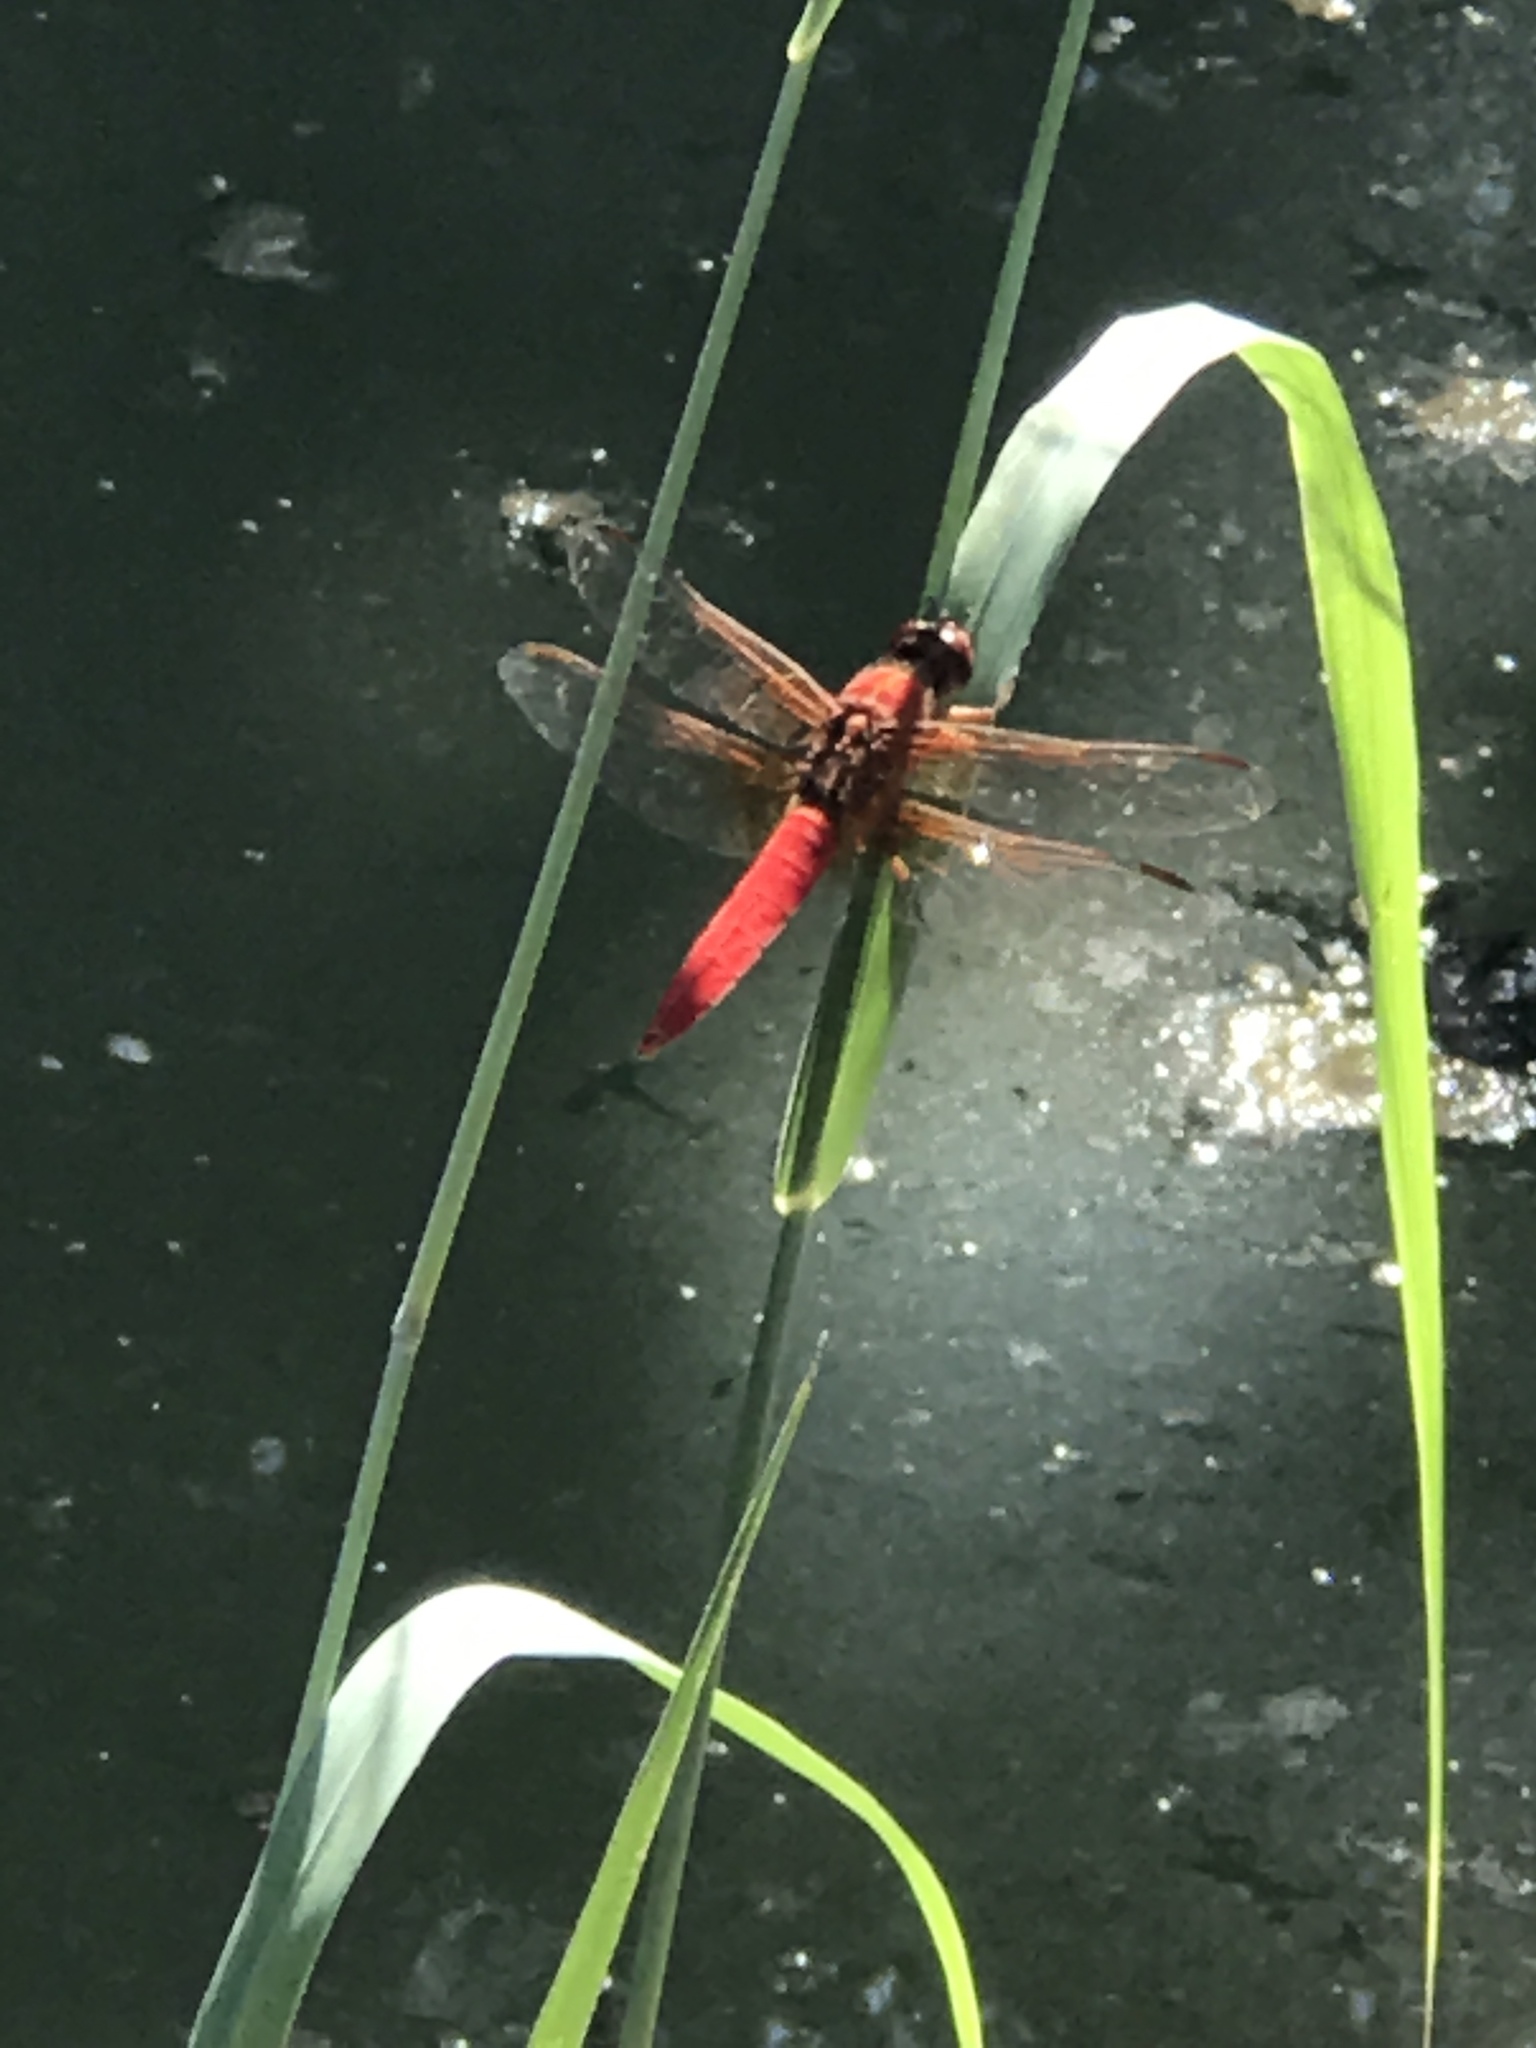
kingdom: Animalia
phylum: Arthropoda
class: Insecta
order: Odonata
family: Libellulidae
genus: Libellula
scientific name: Libellula croceipennis
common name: Neon skimmer
